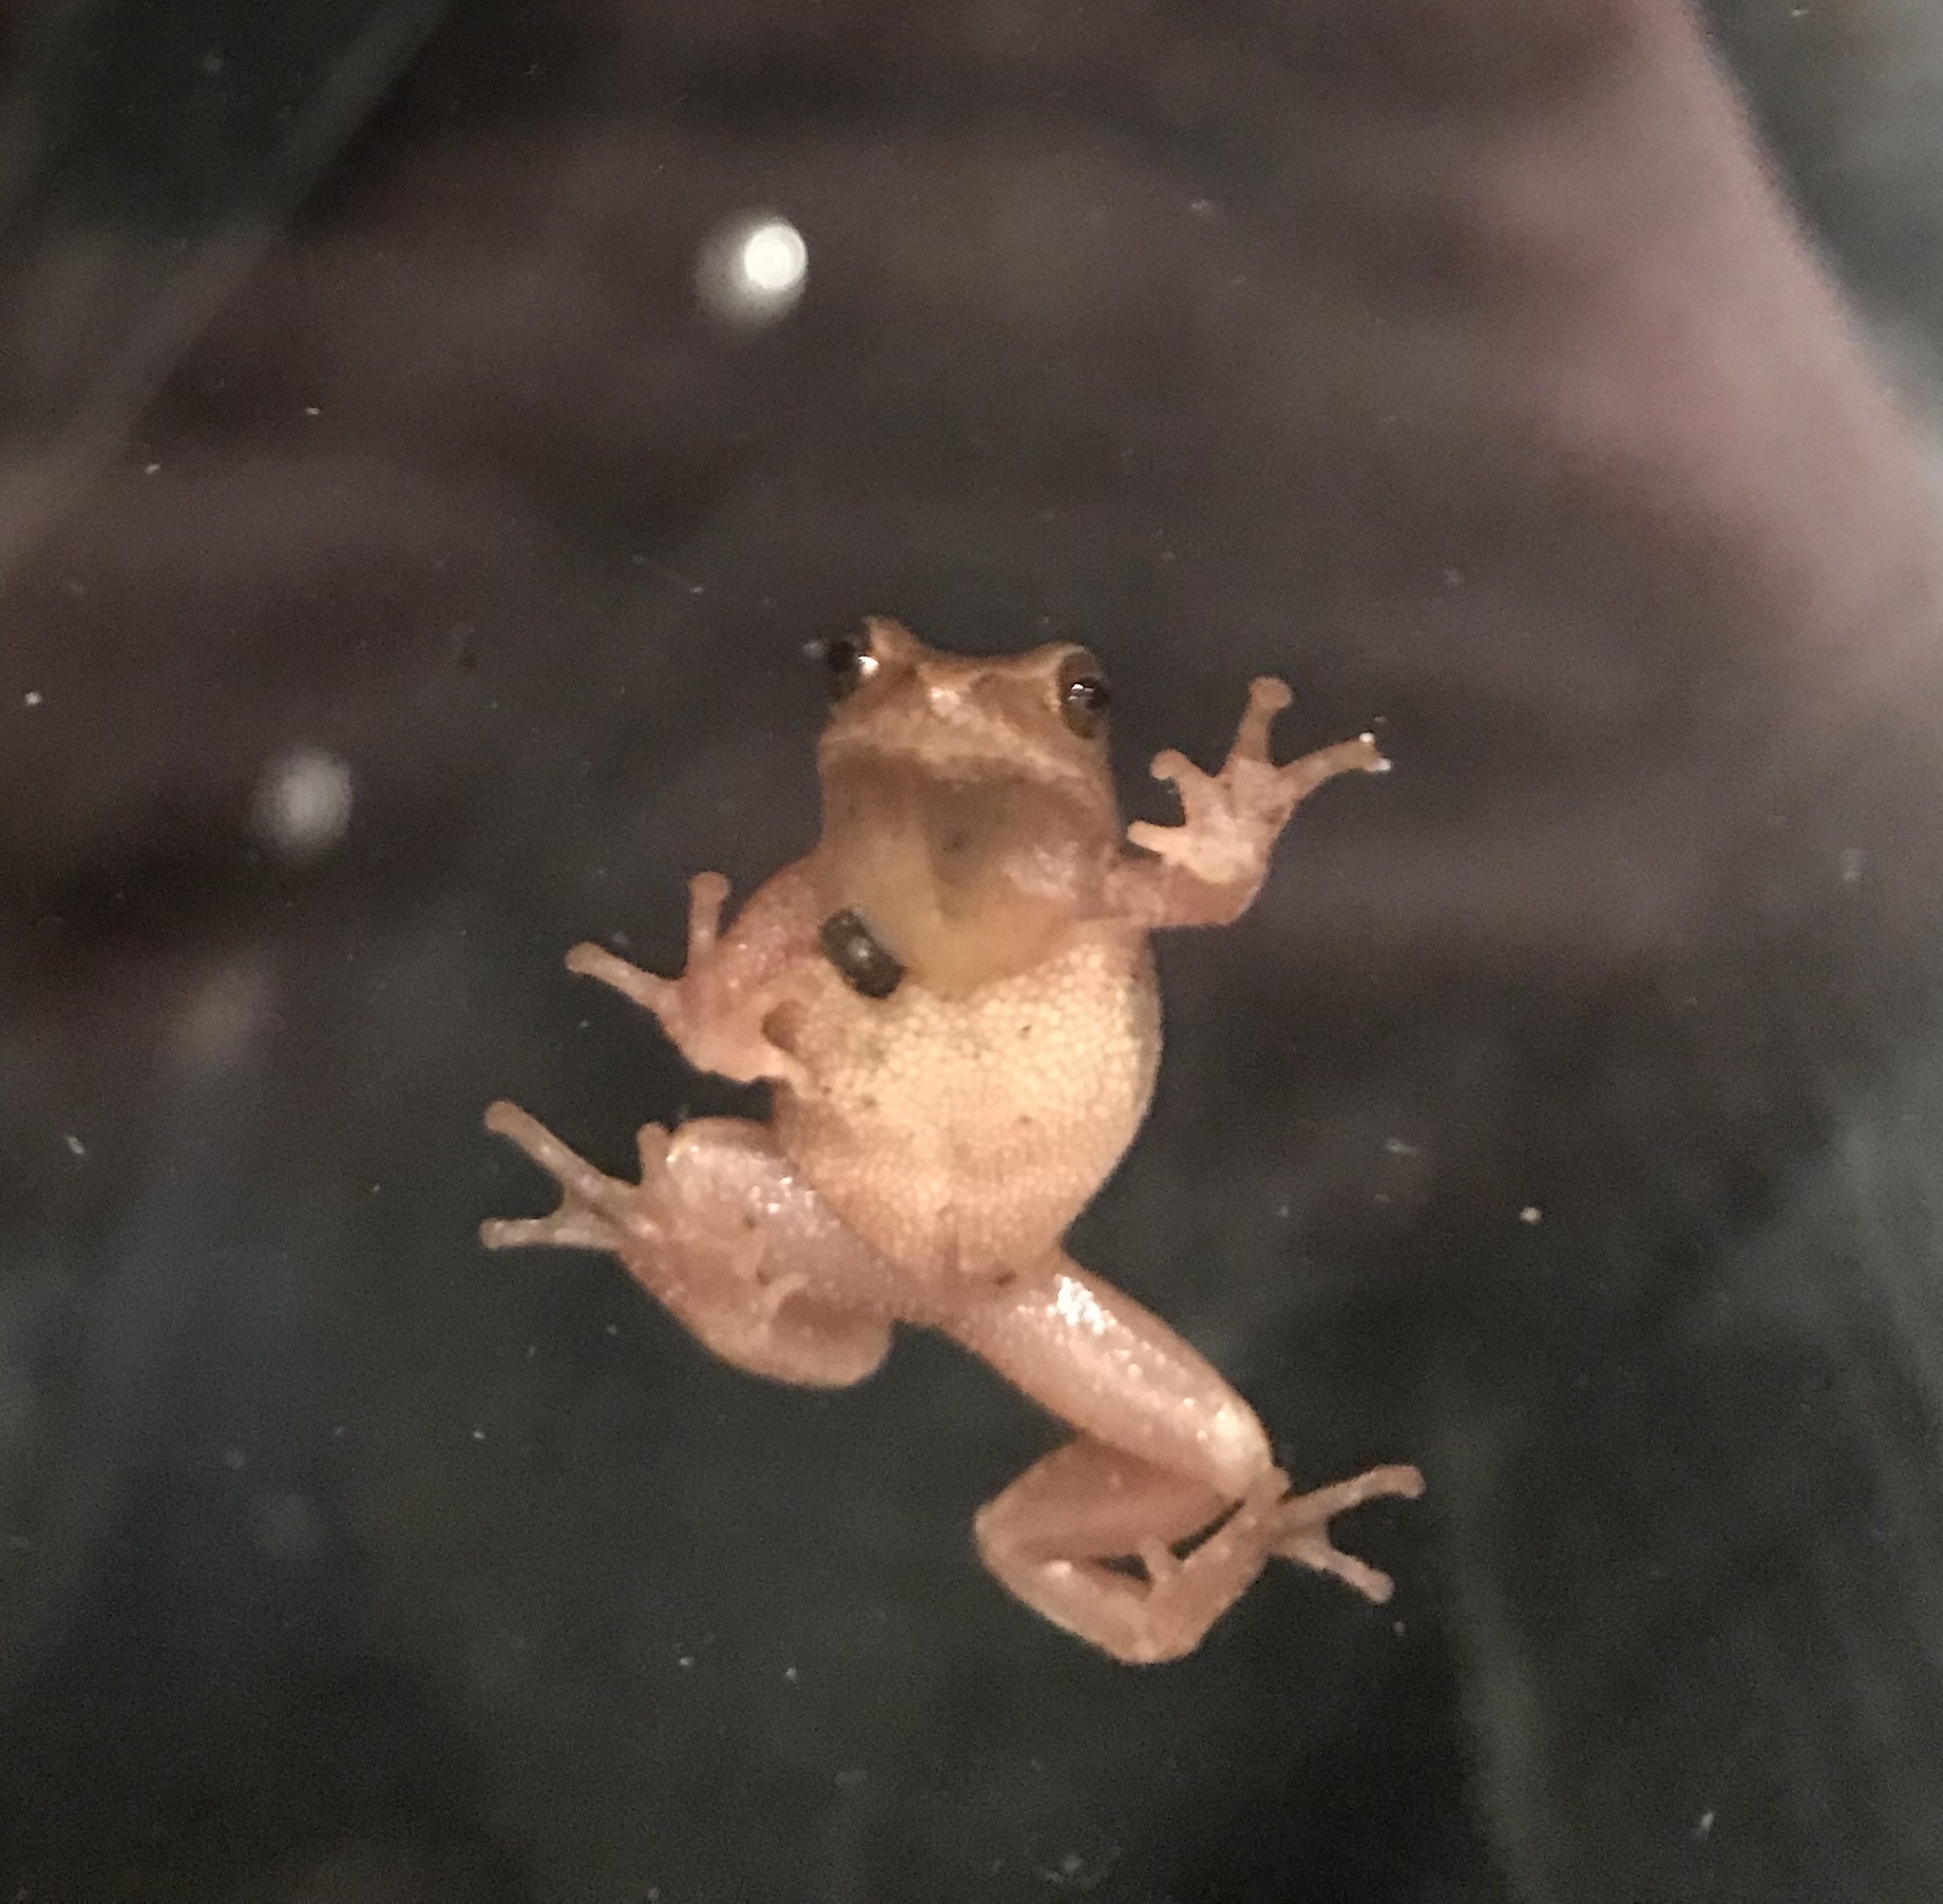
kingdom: Animalia
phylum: Chordata
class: Amphibia
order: Anura
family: Hylidae
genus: Pseudacris
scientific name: Pseudacris crucifer
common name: Spring peeper
